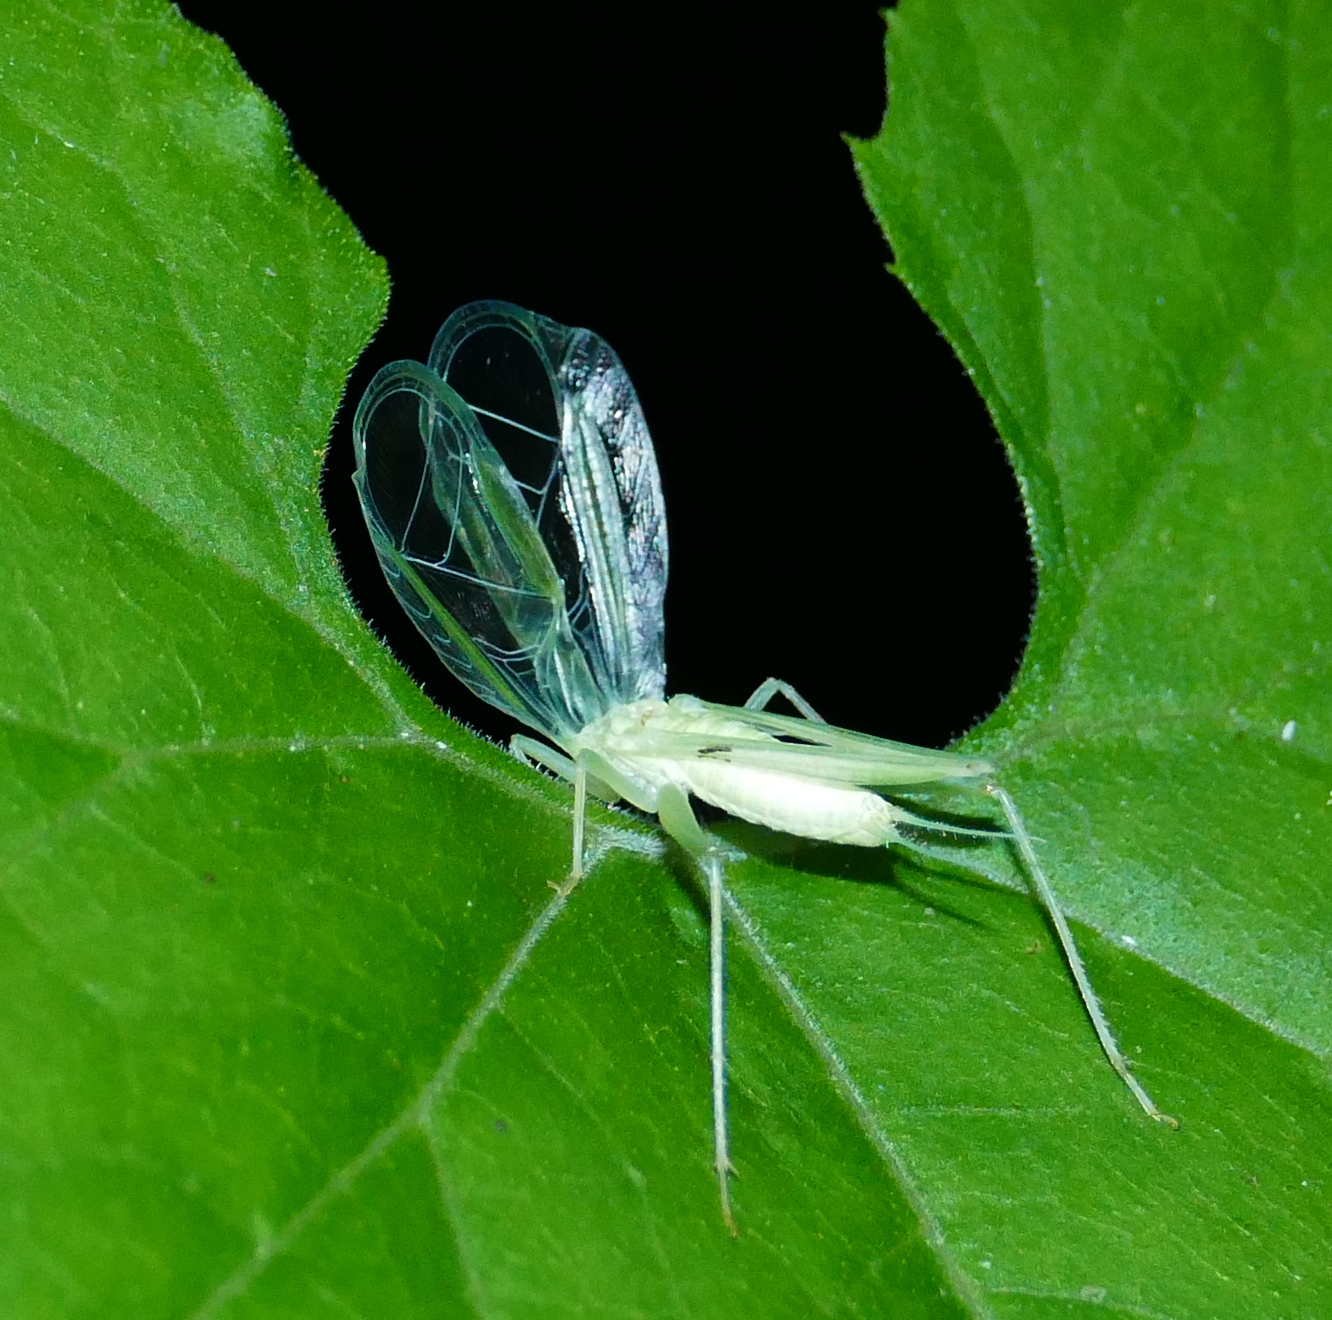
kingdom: Animalia
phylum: Arthropoda
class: Insecta
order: Orthoptera
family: Gryllidae
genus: Oecanthus
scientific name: Oecanthus
